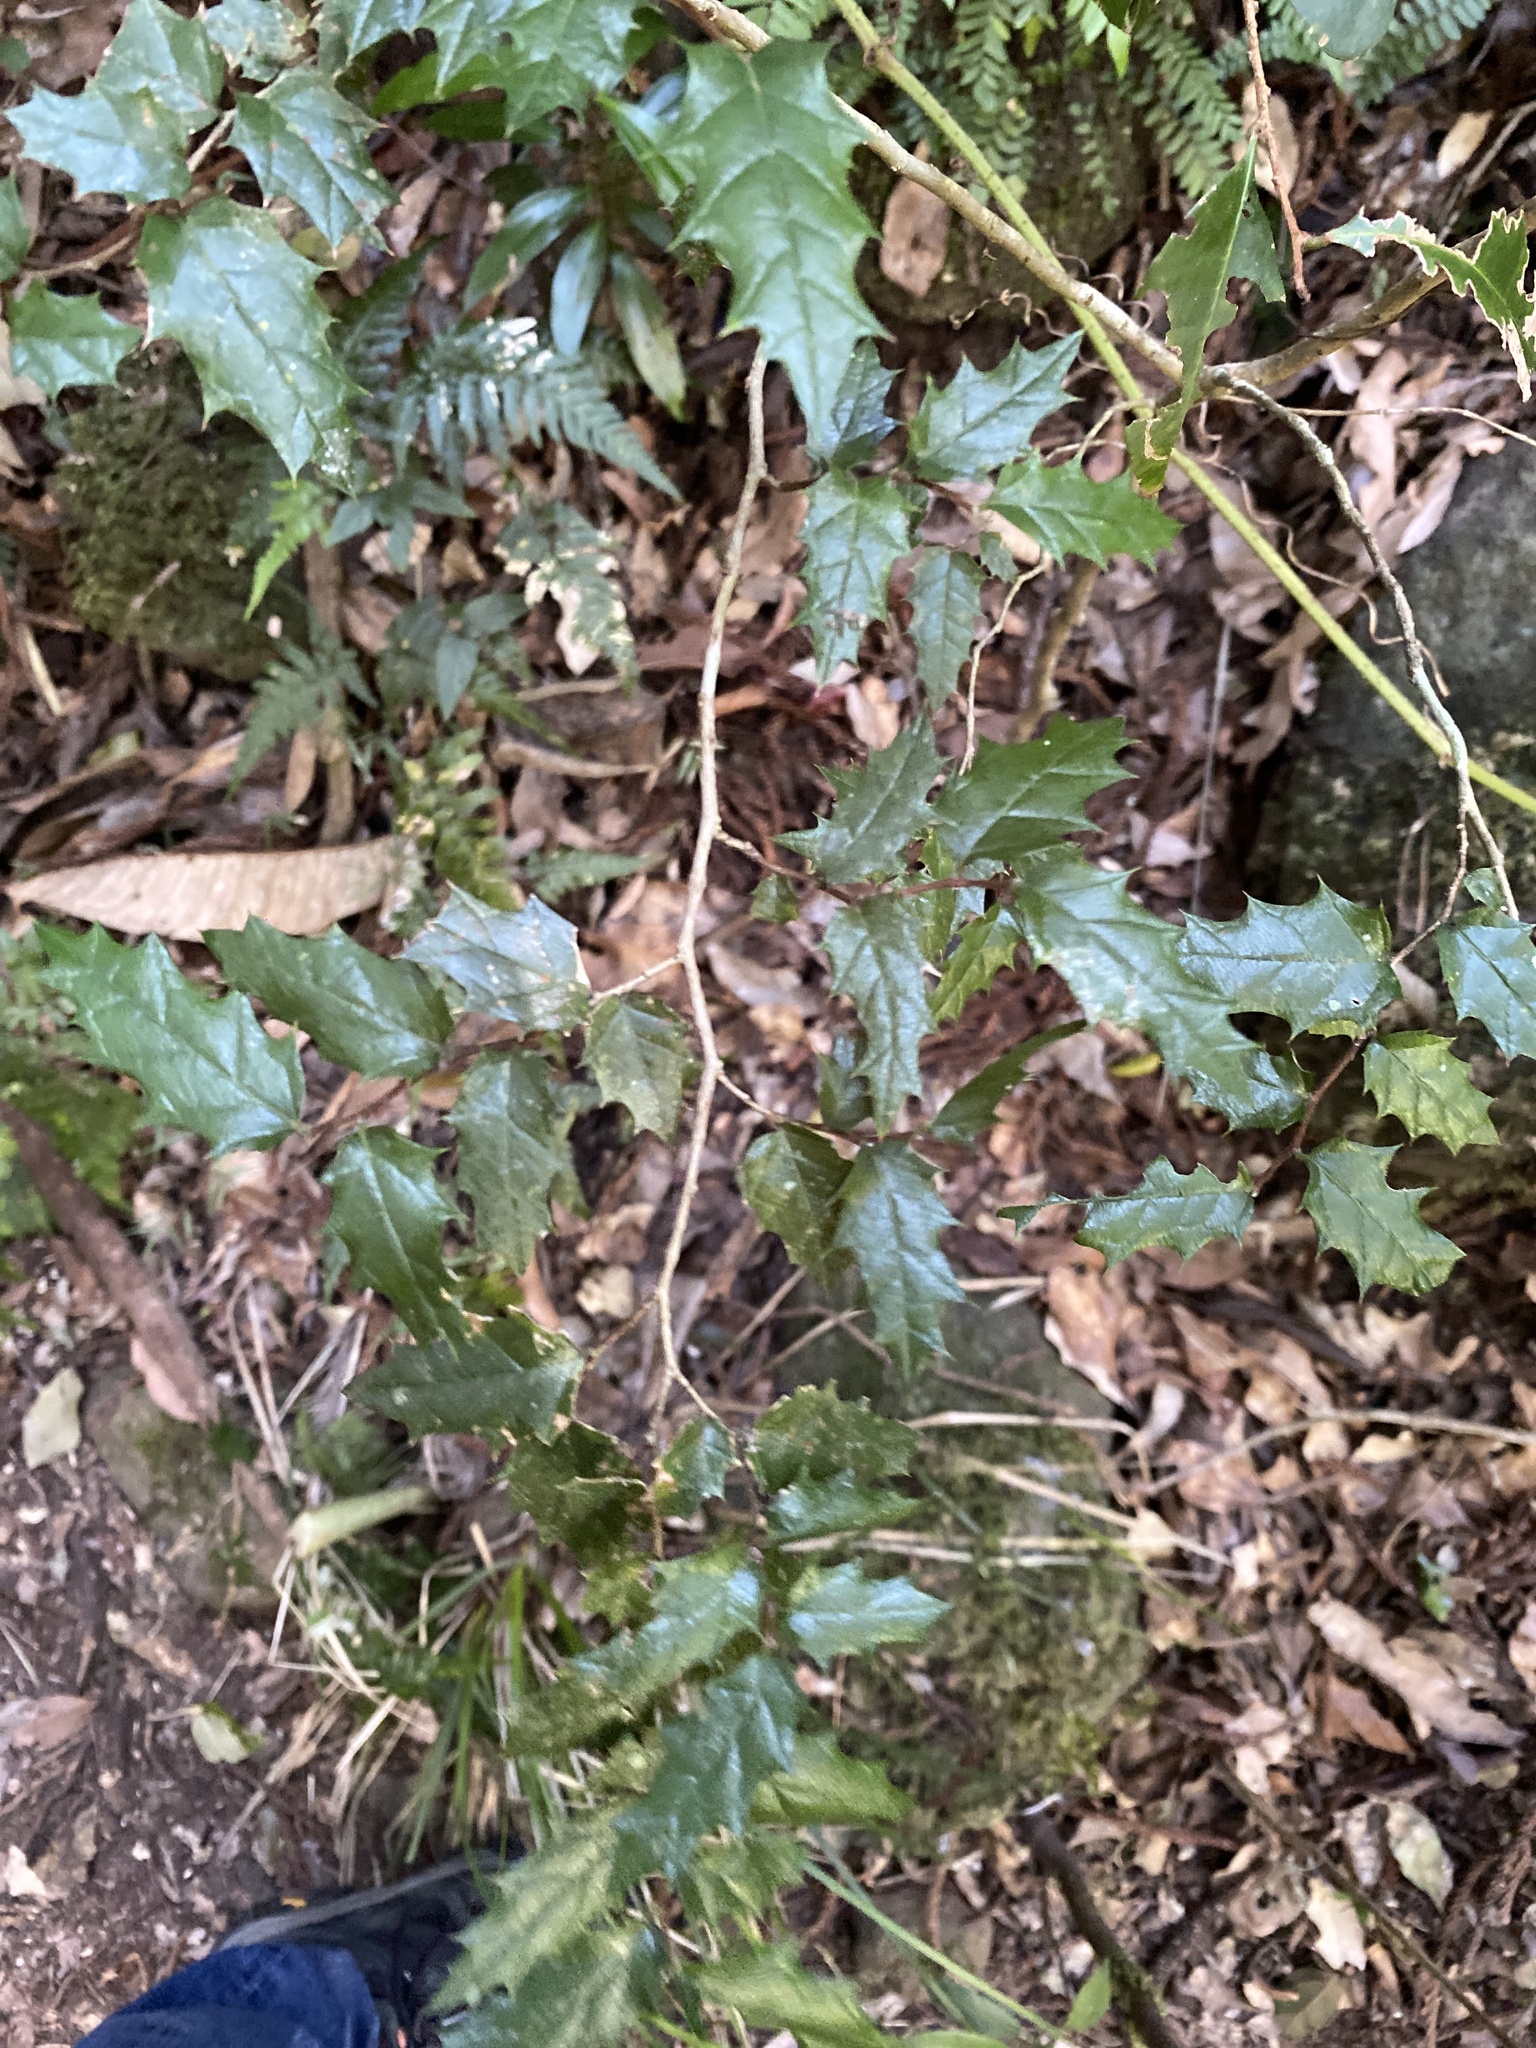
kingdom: Plantae
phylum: Tracheophyta
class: Magnoliopsida
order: Rosales
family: Cannabaceae
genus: Aphananthe
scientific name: Aphananthe philippinensis
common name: Wild holly
